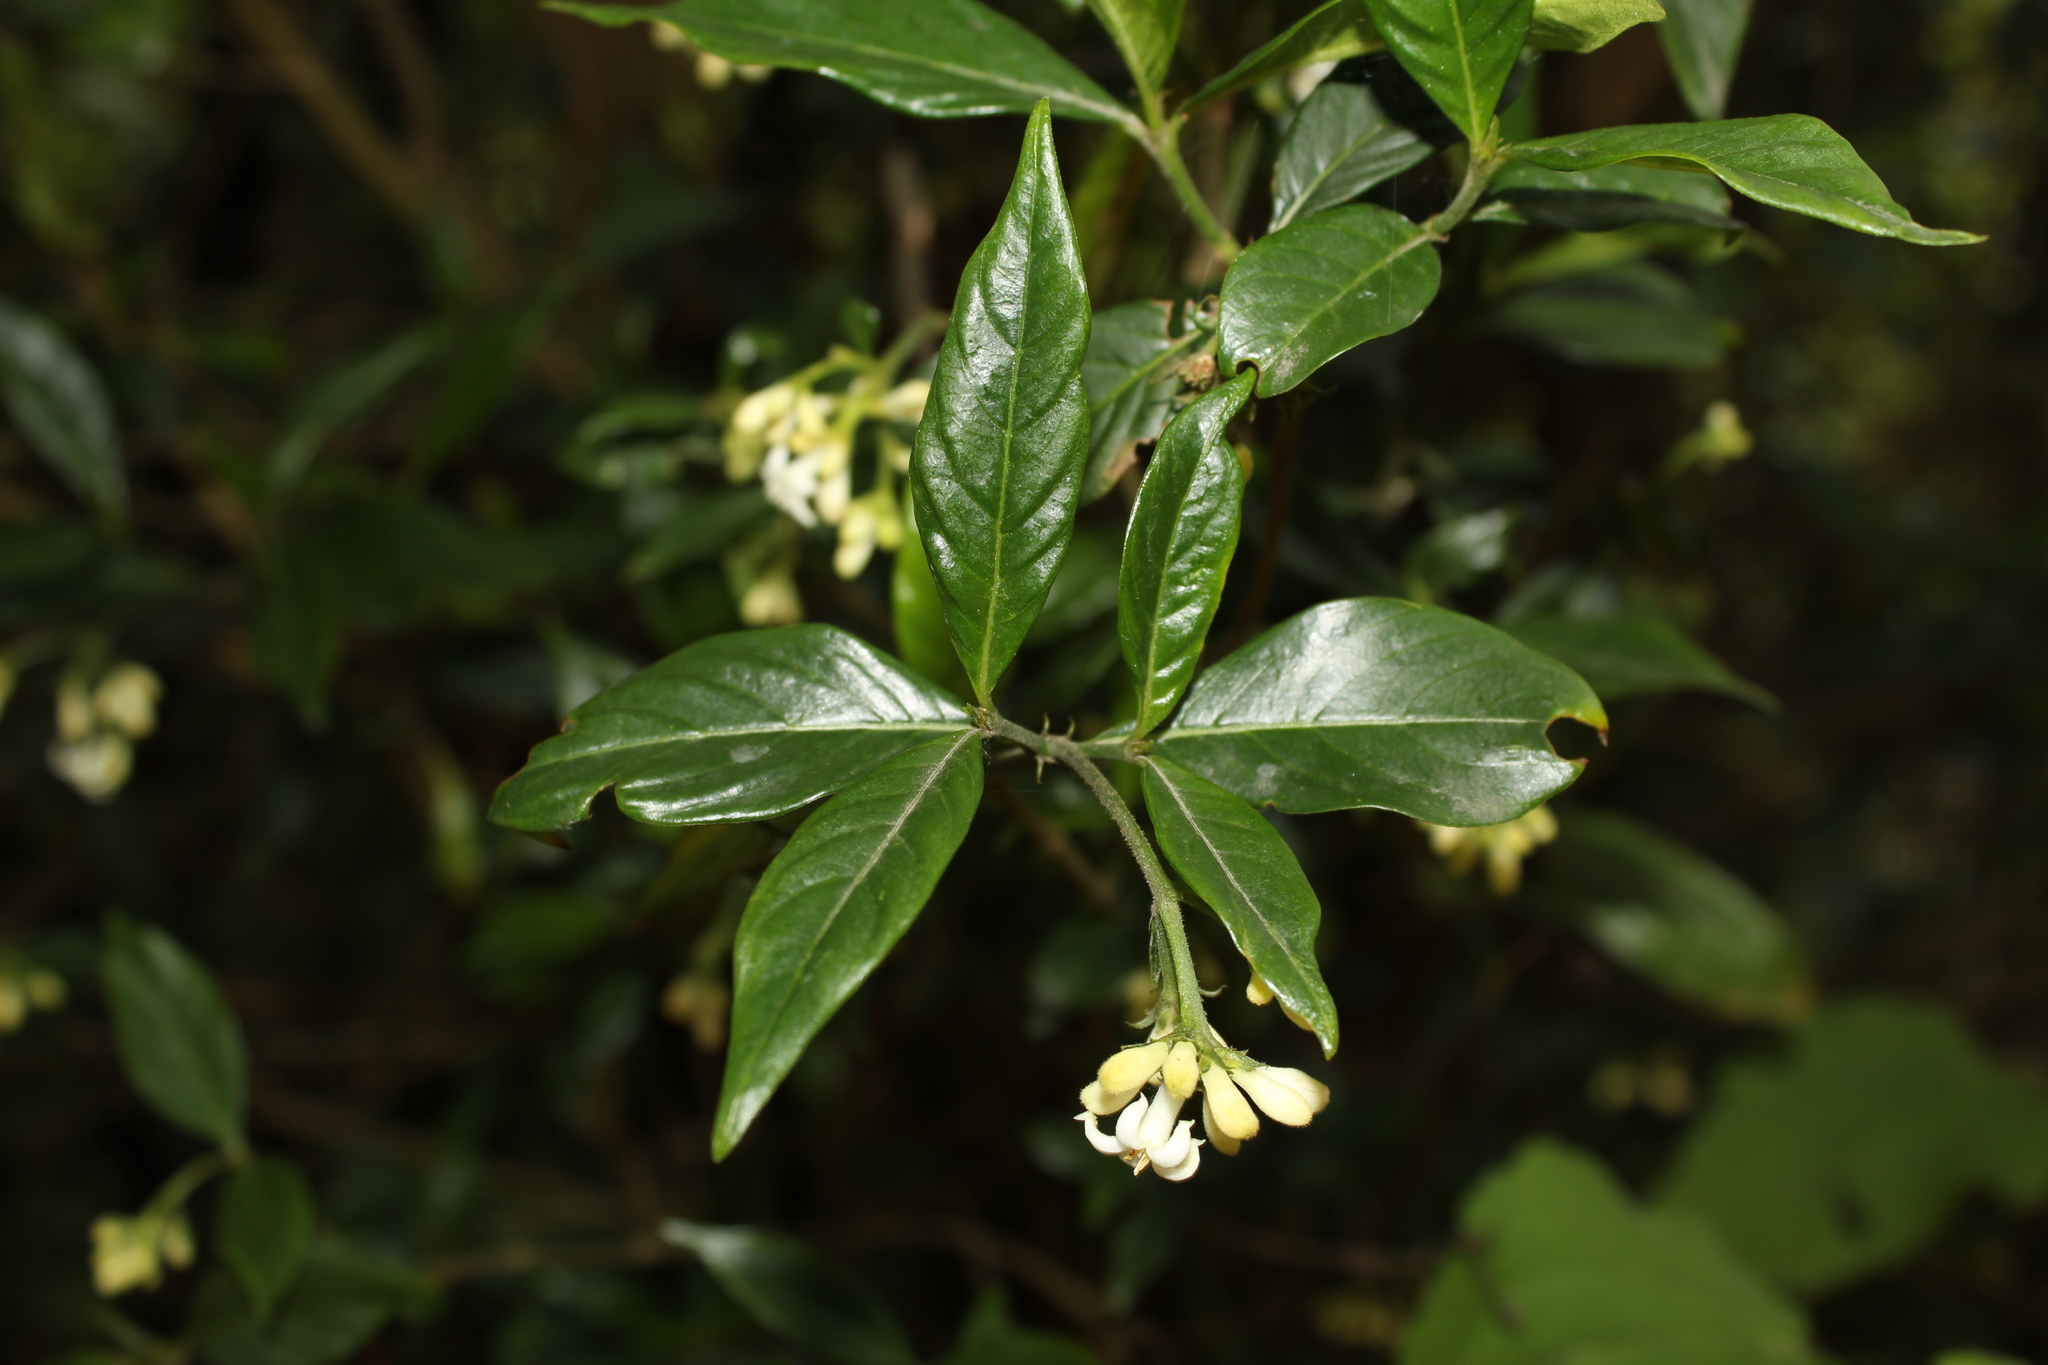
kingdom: Plantae
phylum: Tracheophyta
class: Magnoliopsida
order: Gentianales
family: Rubiaceae
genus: Palicourea
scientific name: Palicourea boqueronensis
